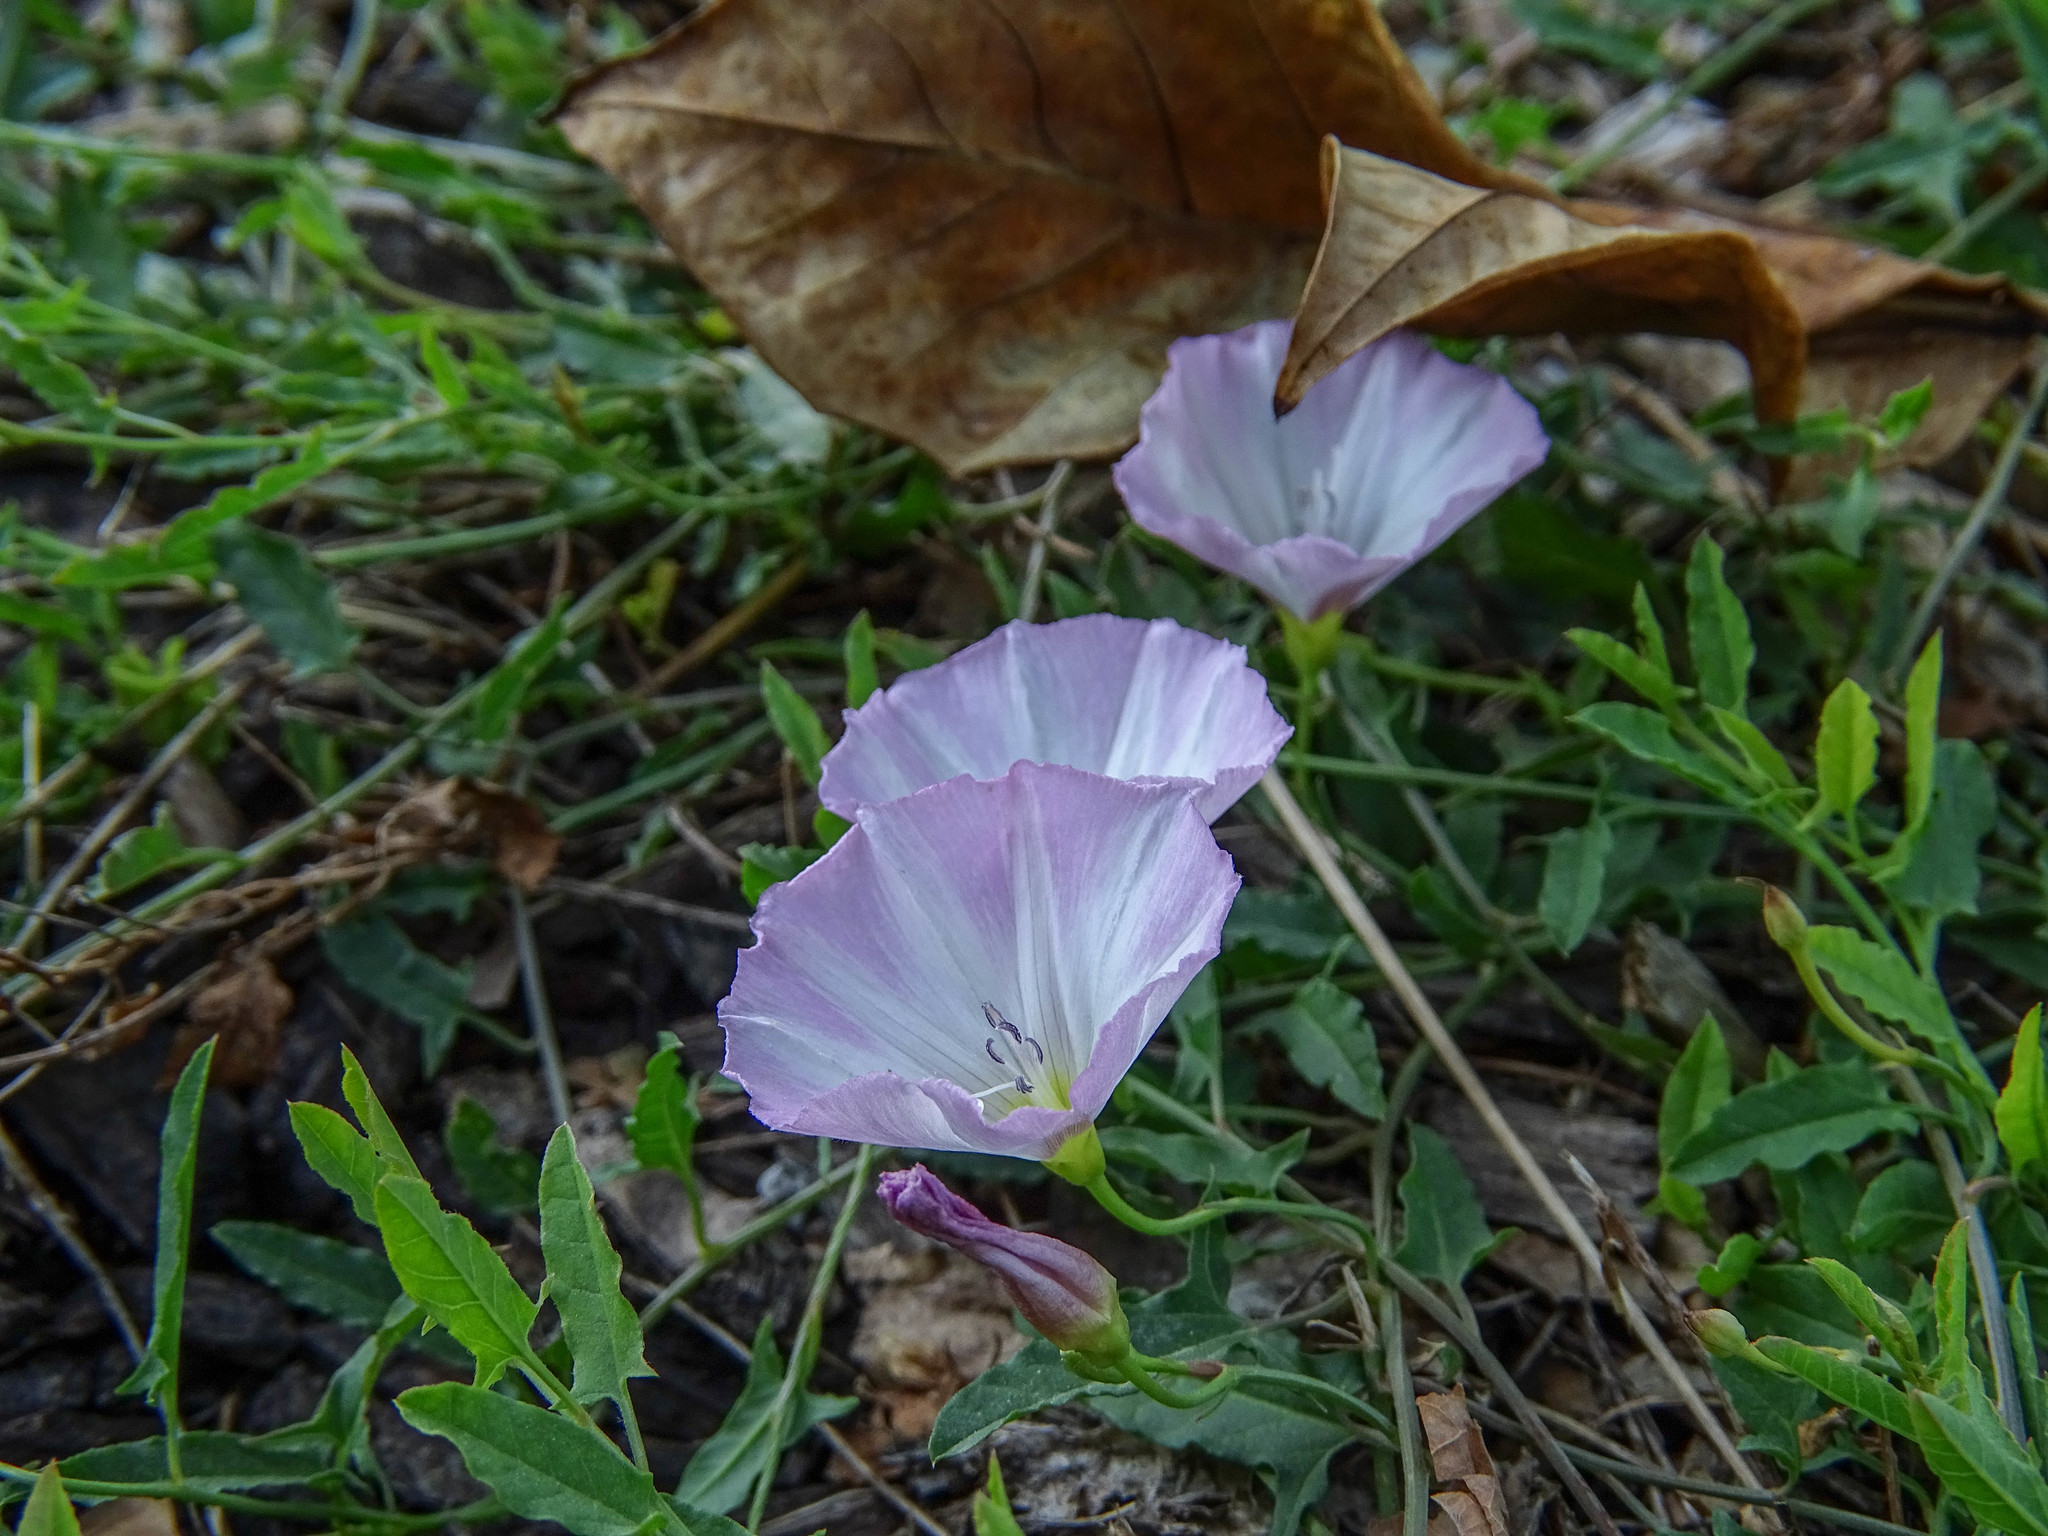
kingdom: Plantae
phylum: Tracheophyta
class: Magnoliopsida
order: Solanales
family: Convolvulaceae
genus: Convolvulus
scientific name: Convolvulus arvensis
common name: Field bindweed
